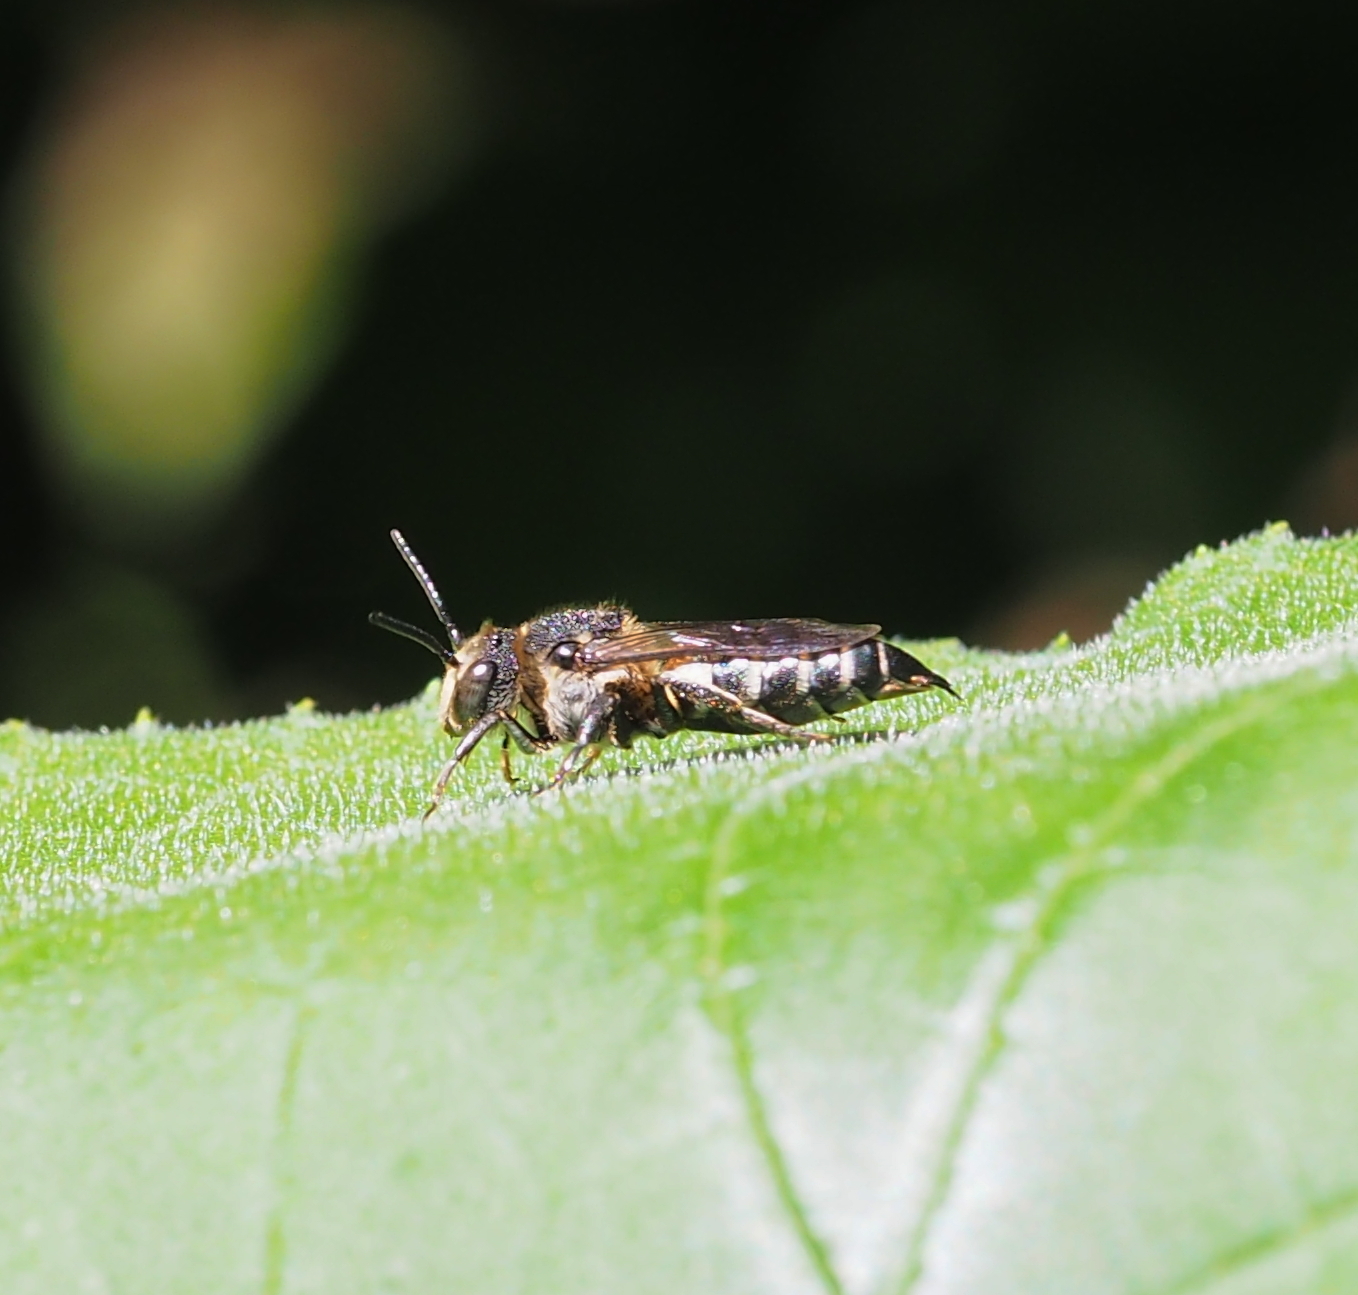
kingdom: Animalia
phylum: Arthropoda
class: Insecta
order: Hymenoptera
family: Megachilidae
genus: Coelioxys
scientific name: Coelioxys elongatus
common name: Dull-vented sharp-tail bee
